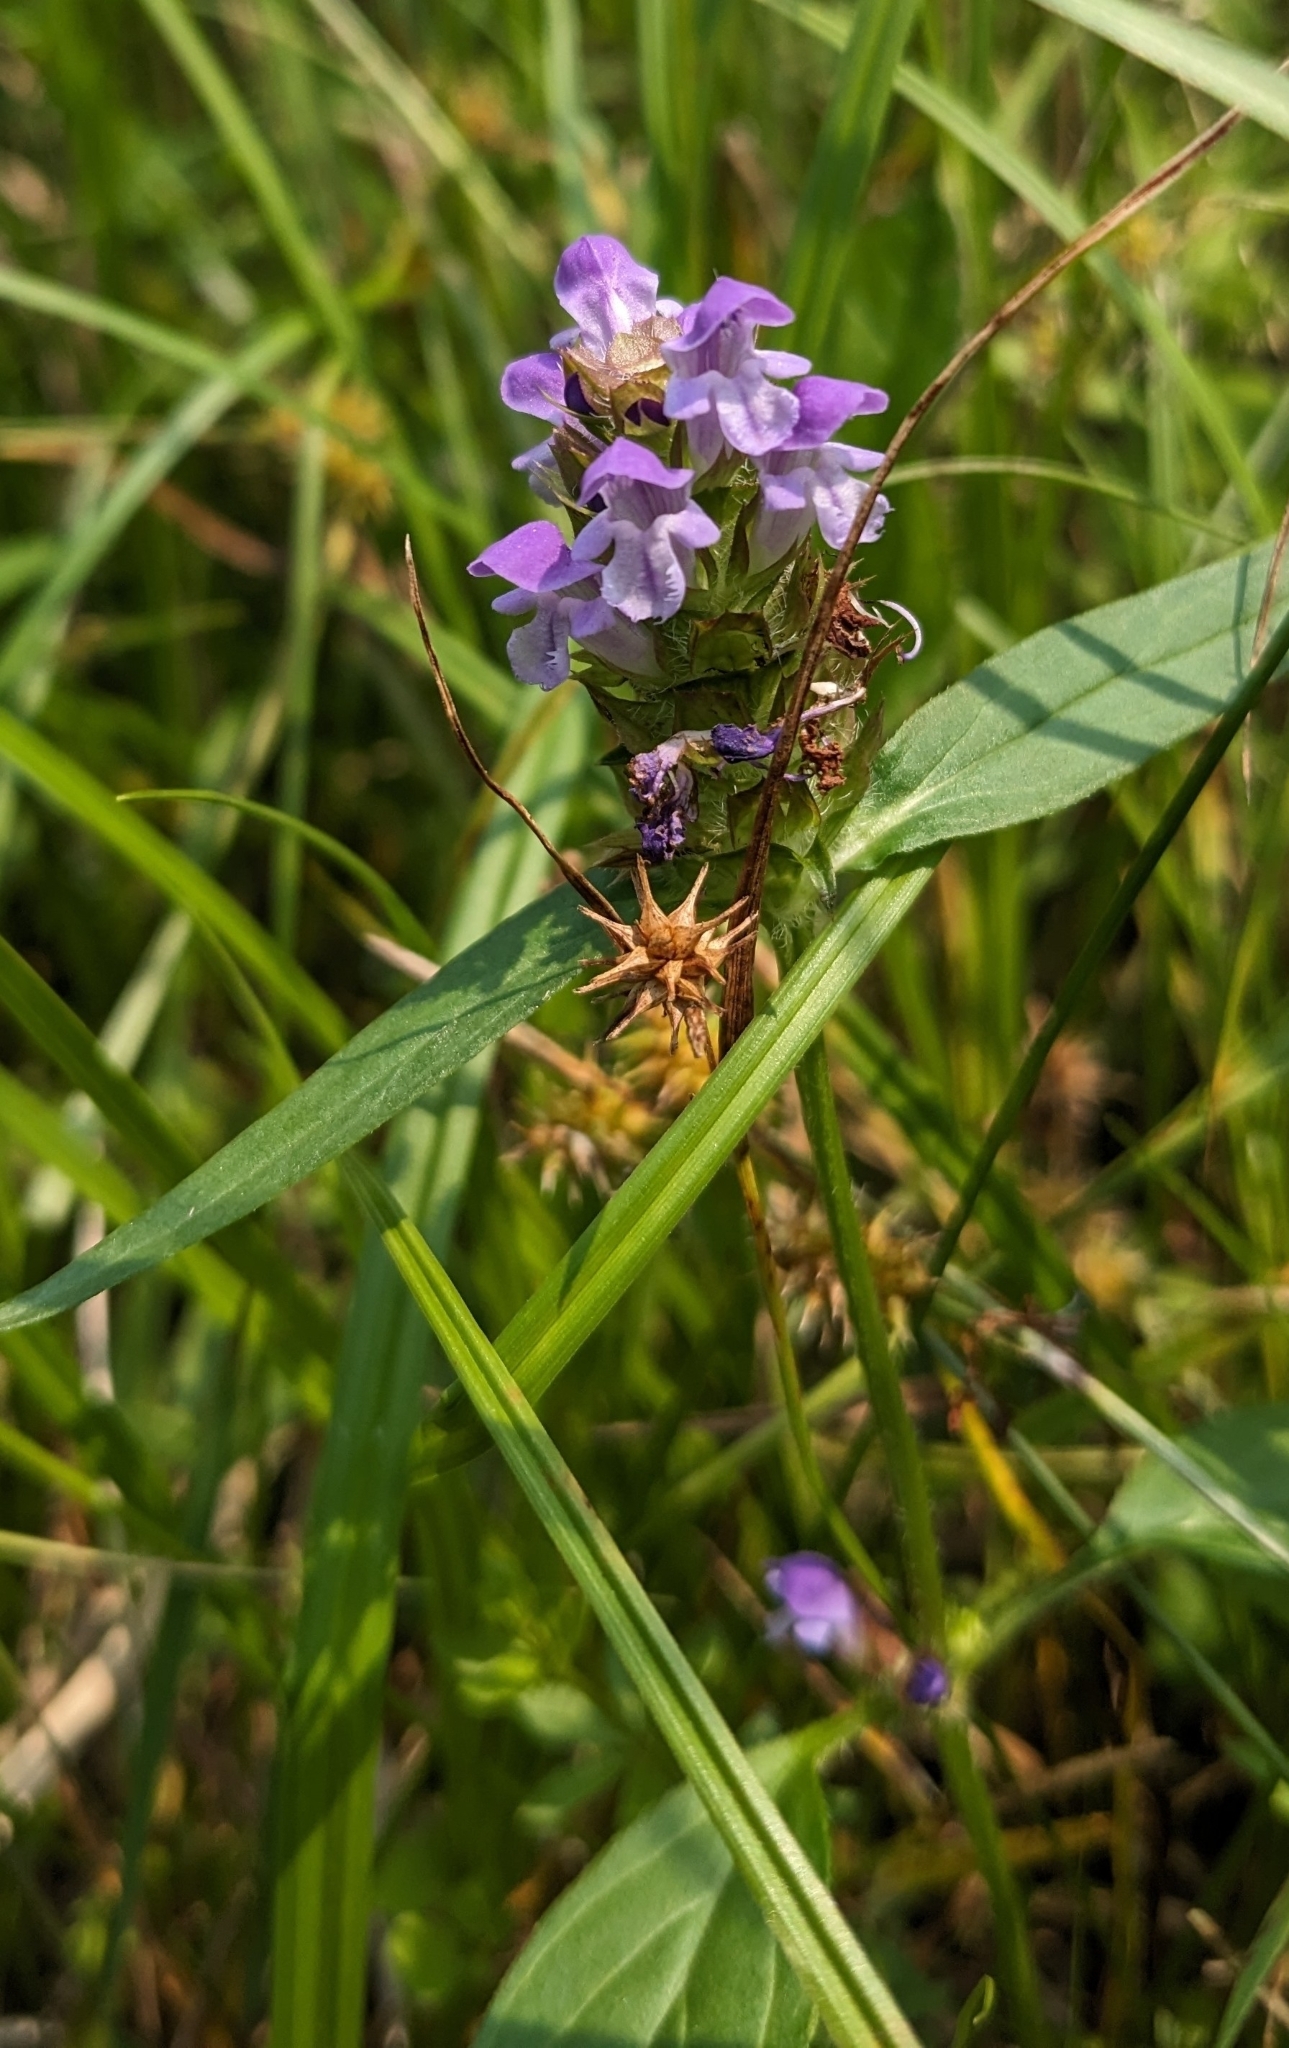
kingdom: Plantae
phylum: Tracheophyta
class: Magnoliopsida
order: Lamiales
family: Lamiaceae
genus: Prunella
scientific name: Prunella vulgaris
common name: Heal-all
